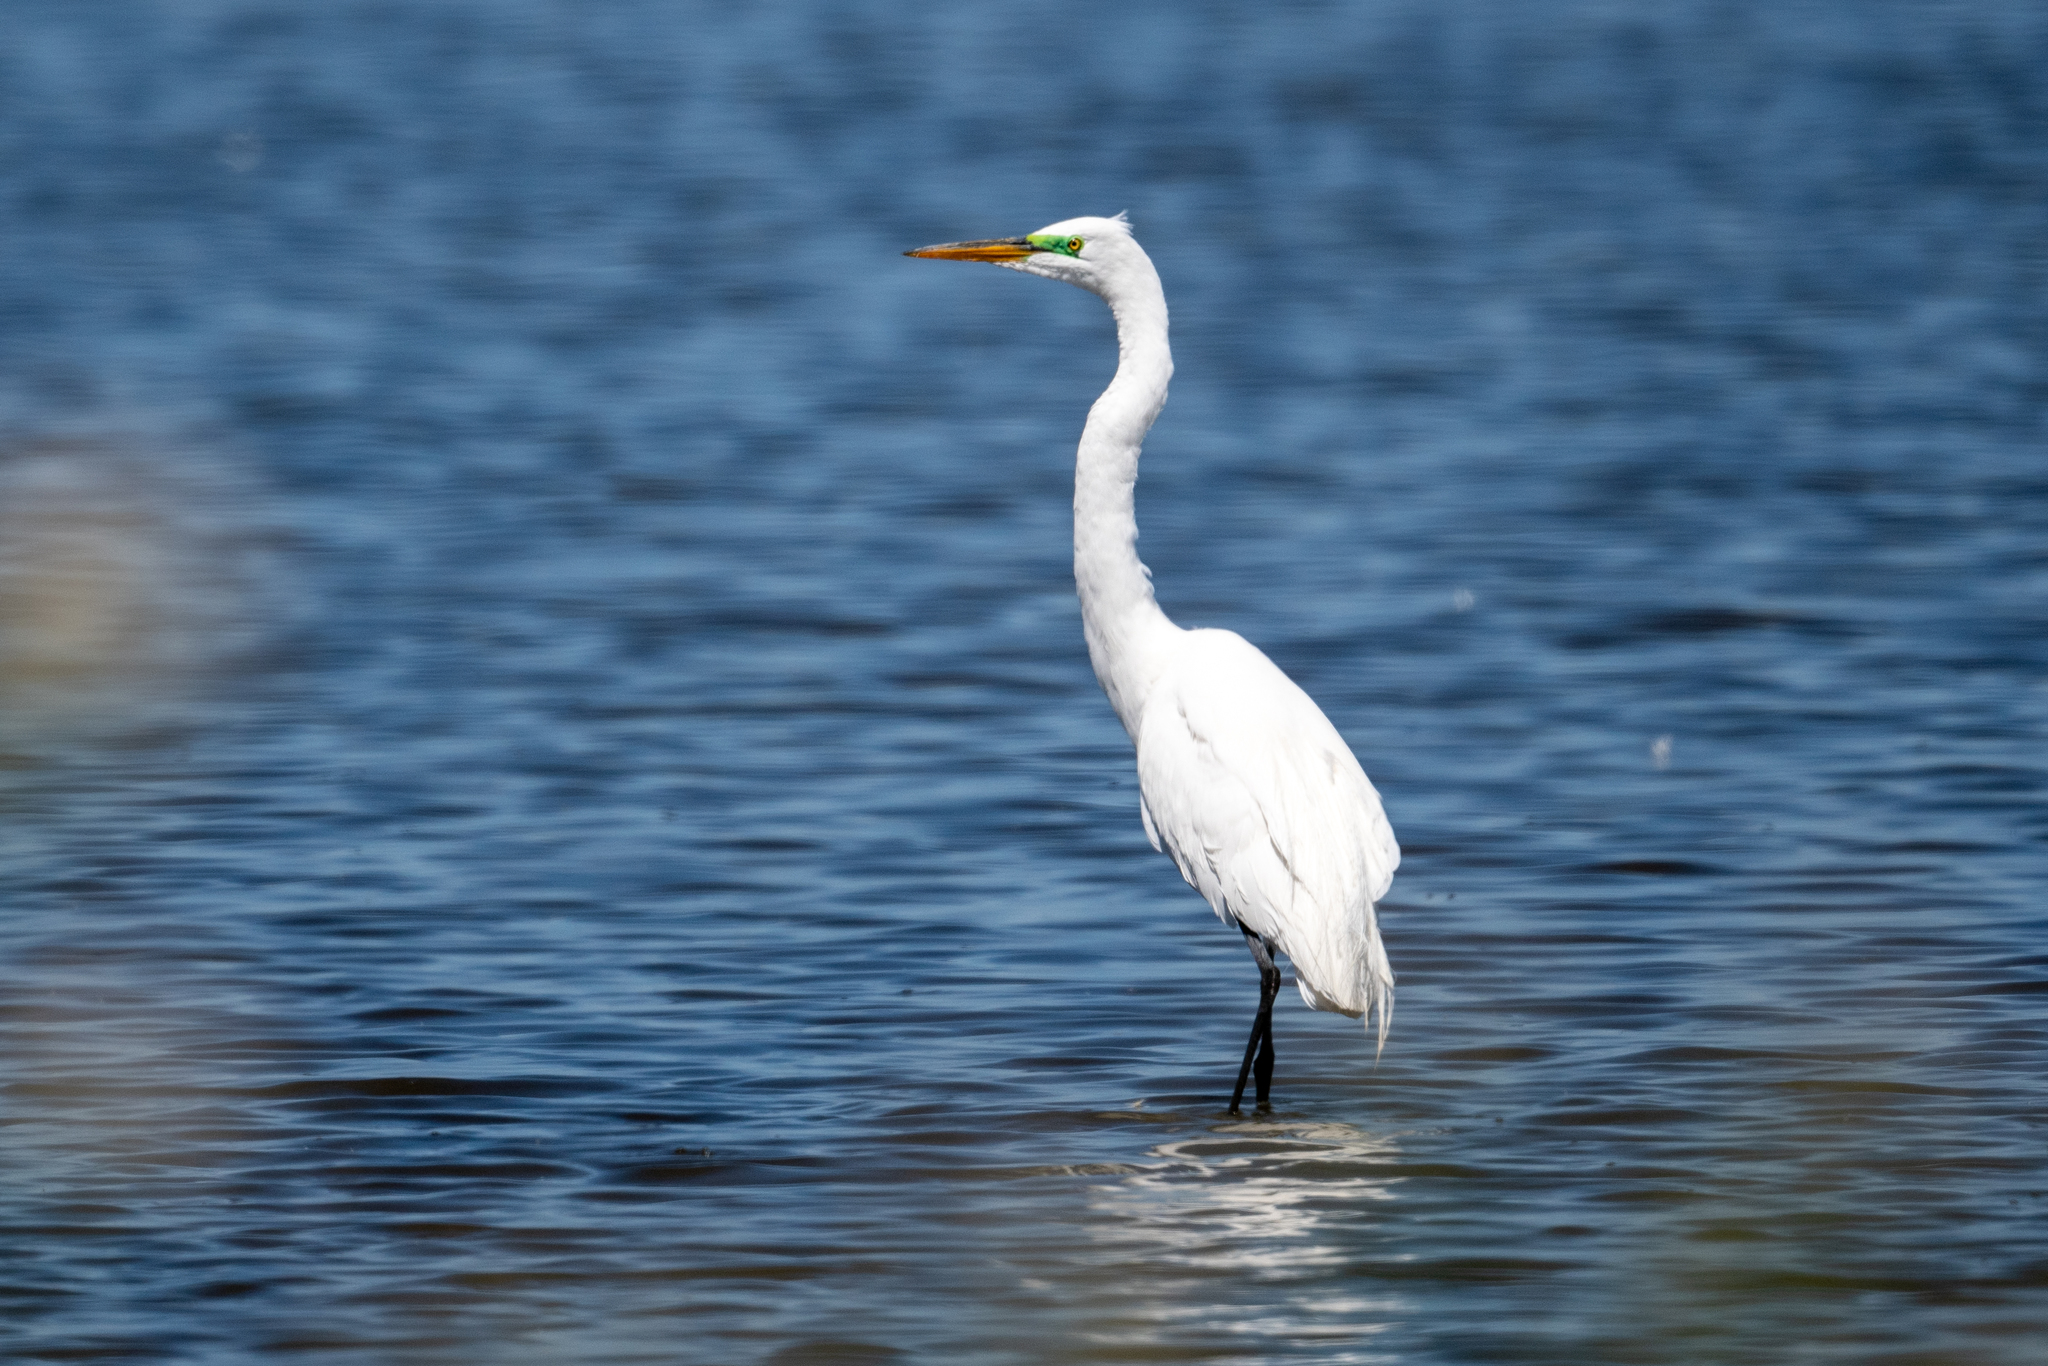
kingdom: Animalia
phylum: Chordata
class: Aves
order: Pelecaniformes
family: Ardeidae
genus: Ardea
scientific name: Ardea alba
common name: Great egret
